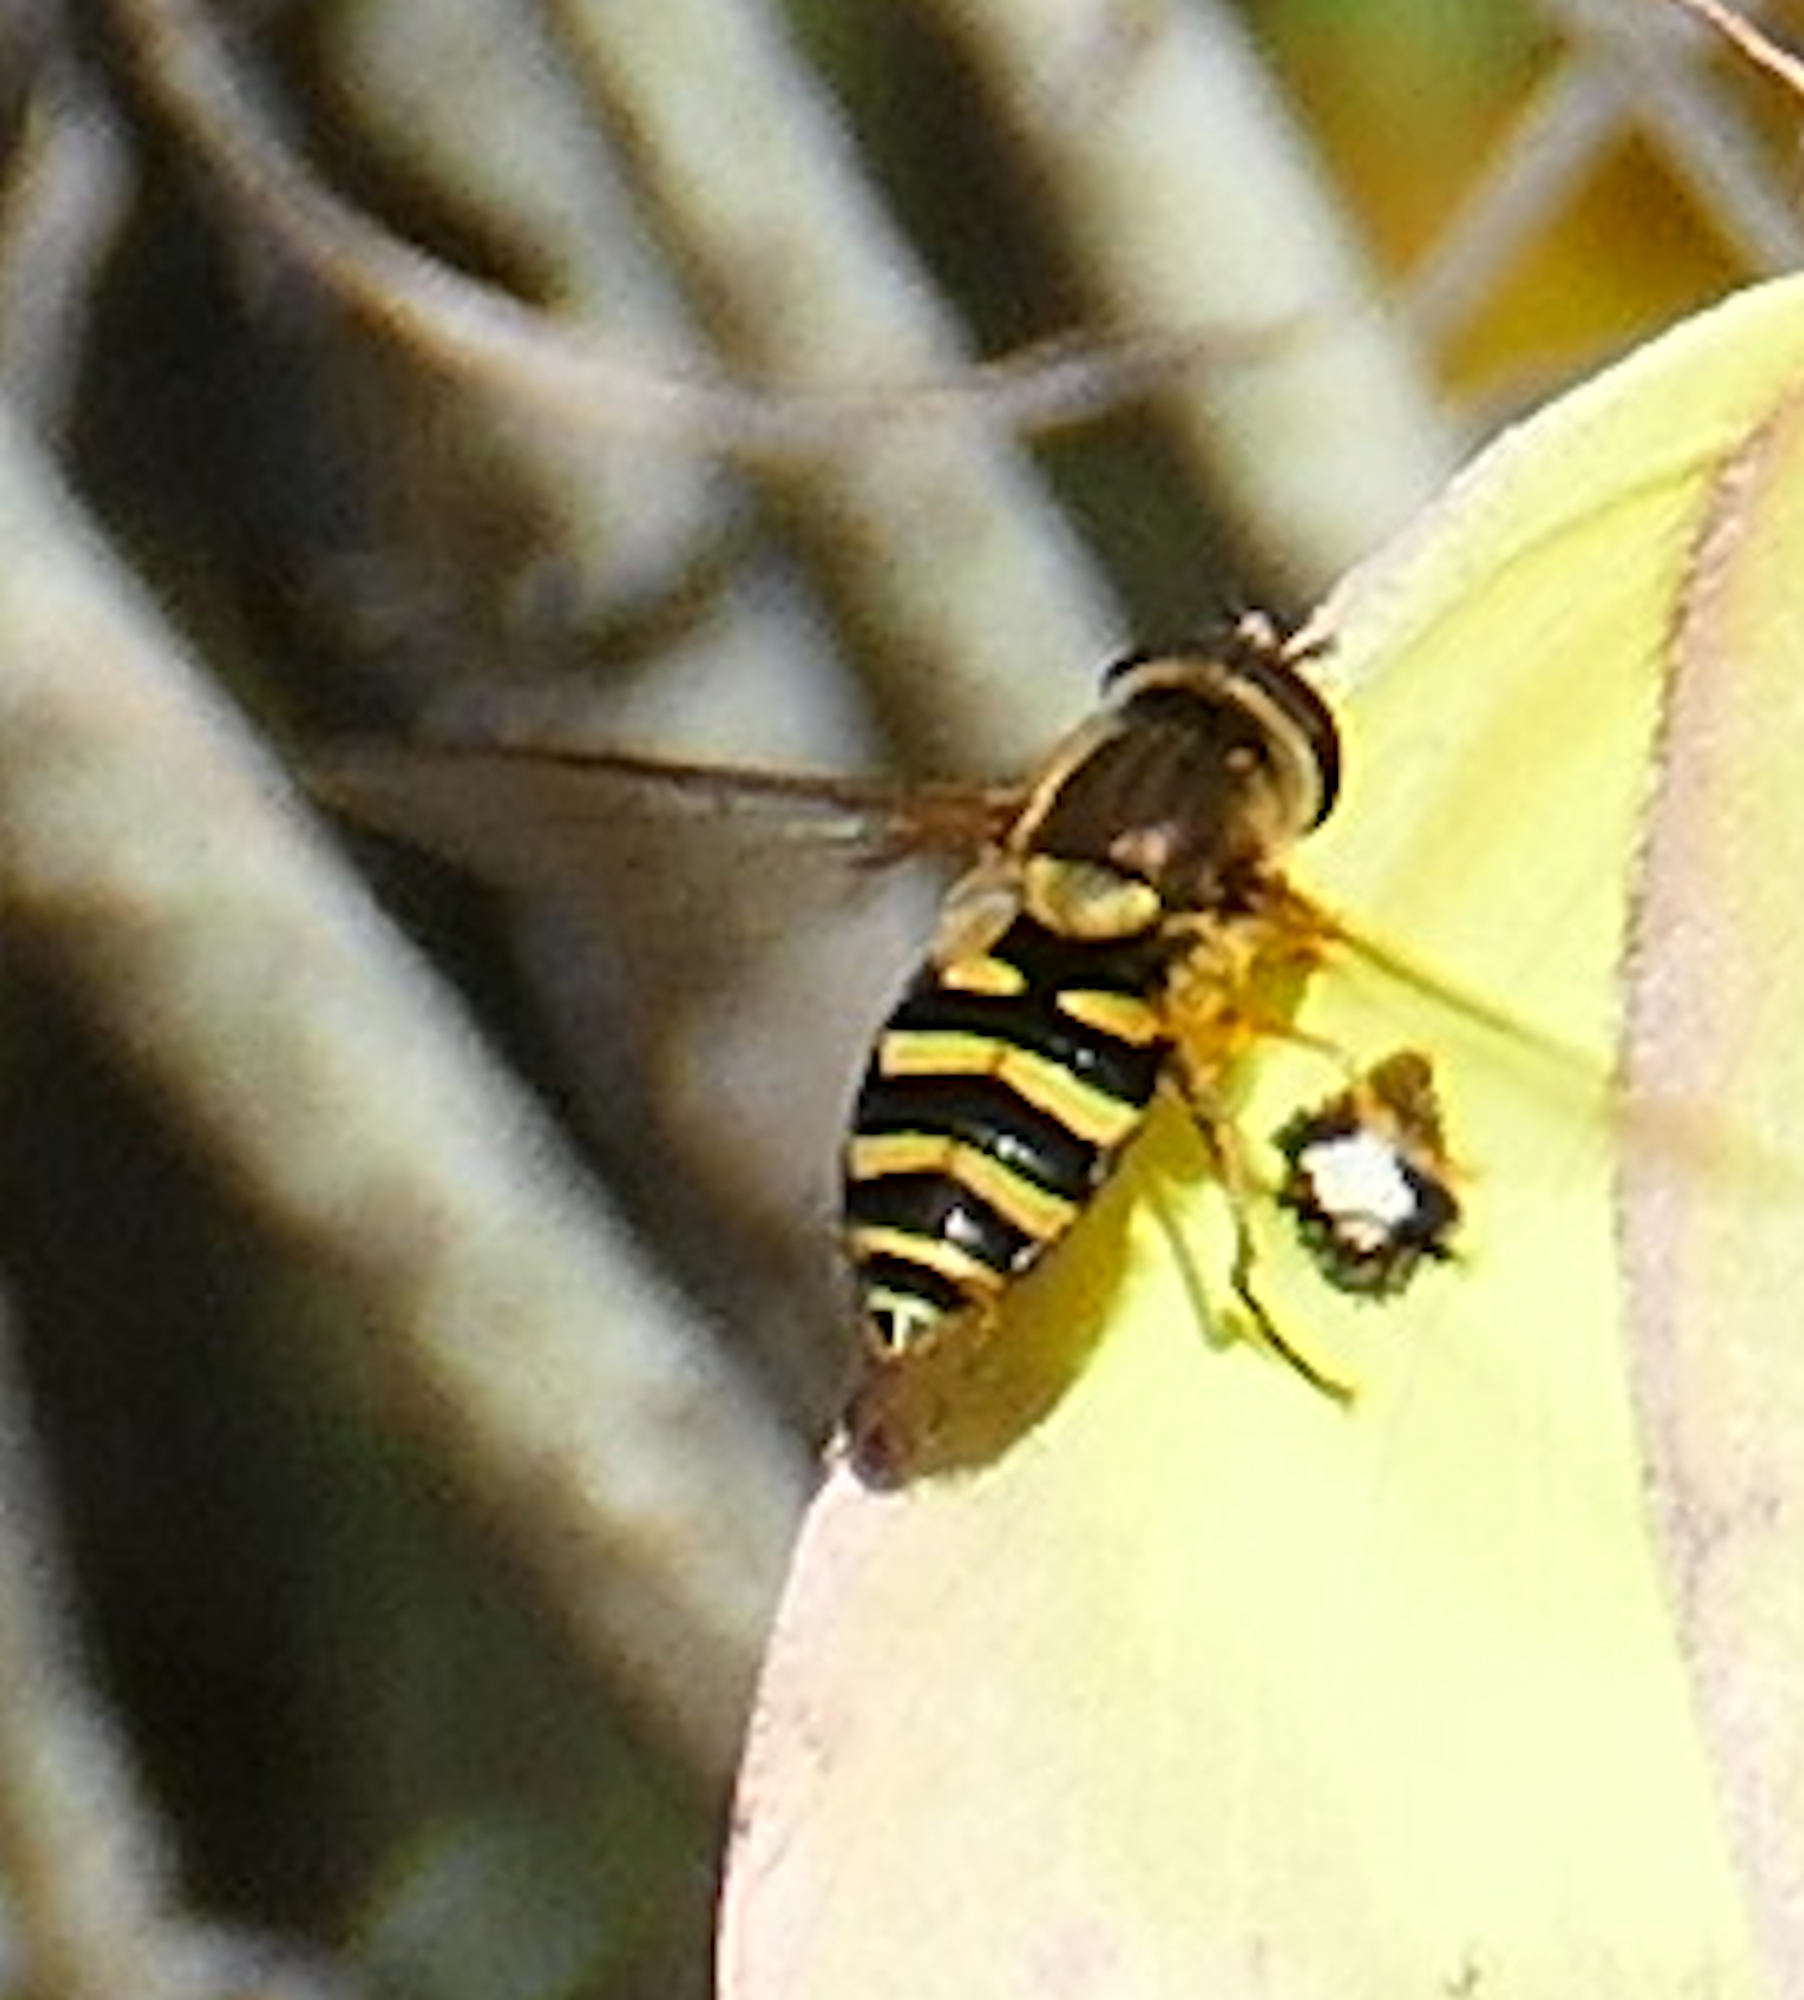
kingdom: Animalia
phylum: Arthropoda
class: Insecta
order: Diptera
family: Syrphidae
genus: Syrphus
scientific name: Syrphus opinator
